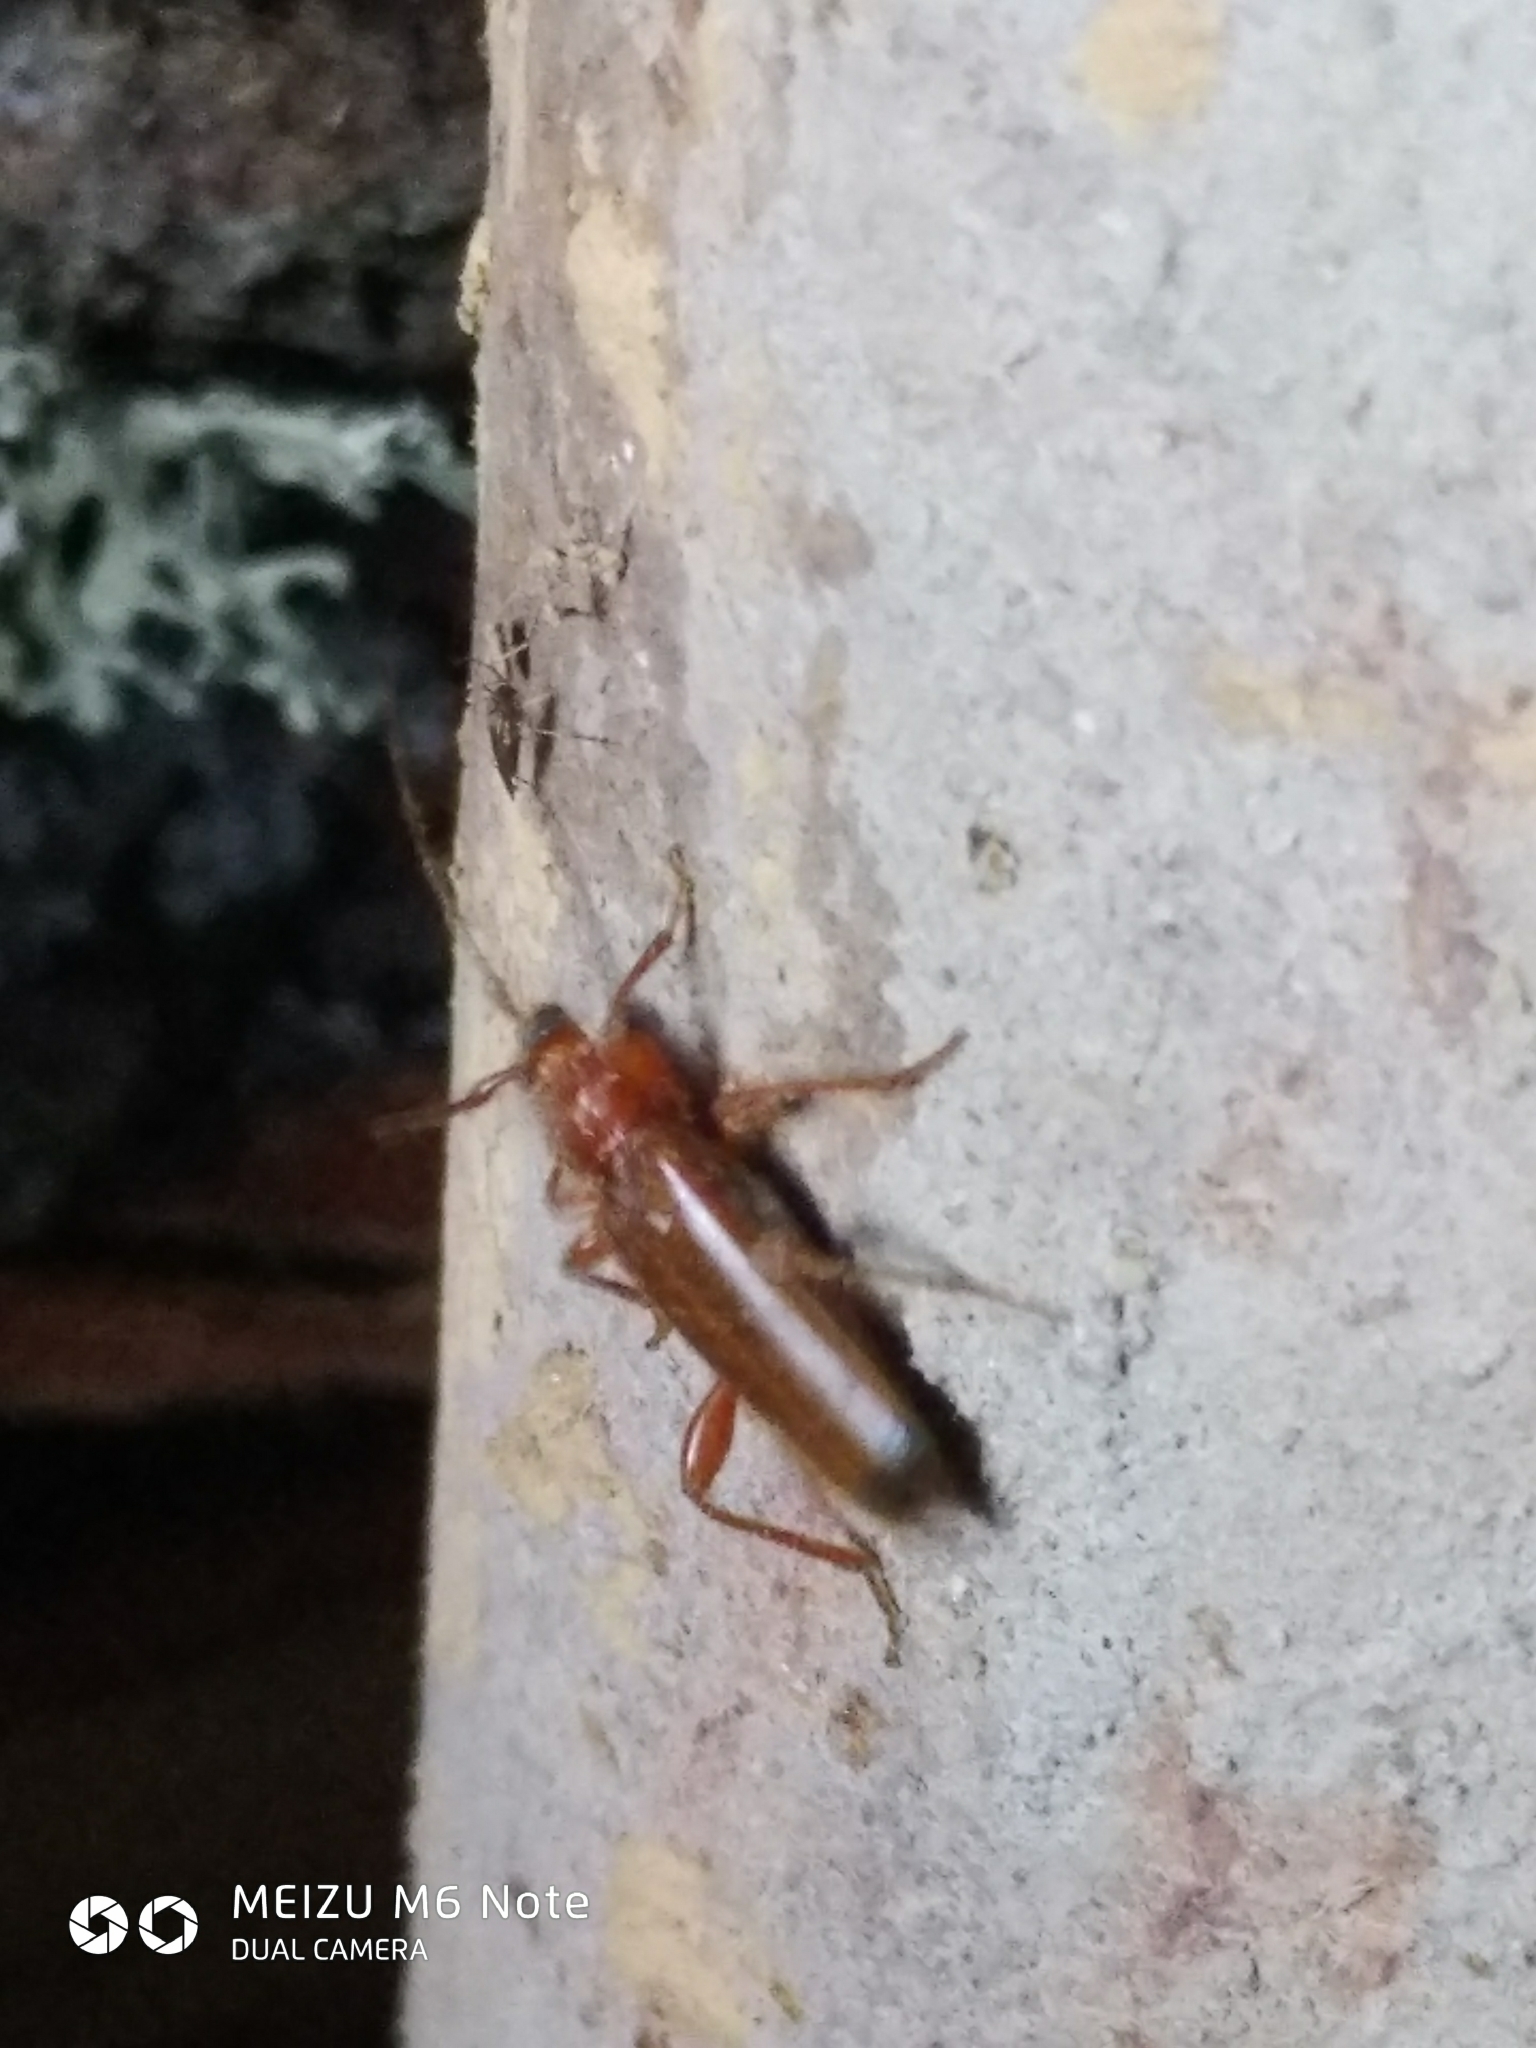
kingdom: Animalia
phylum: Arthropoda
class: Insecta
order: Coleoptera
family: Cerambycidae
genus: Phymatodes
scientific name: Phymatodes testaceus
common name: Long-horned beetle
